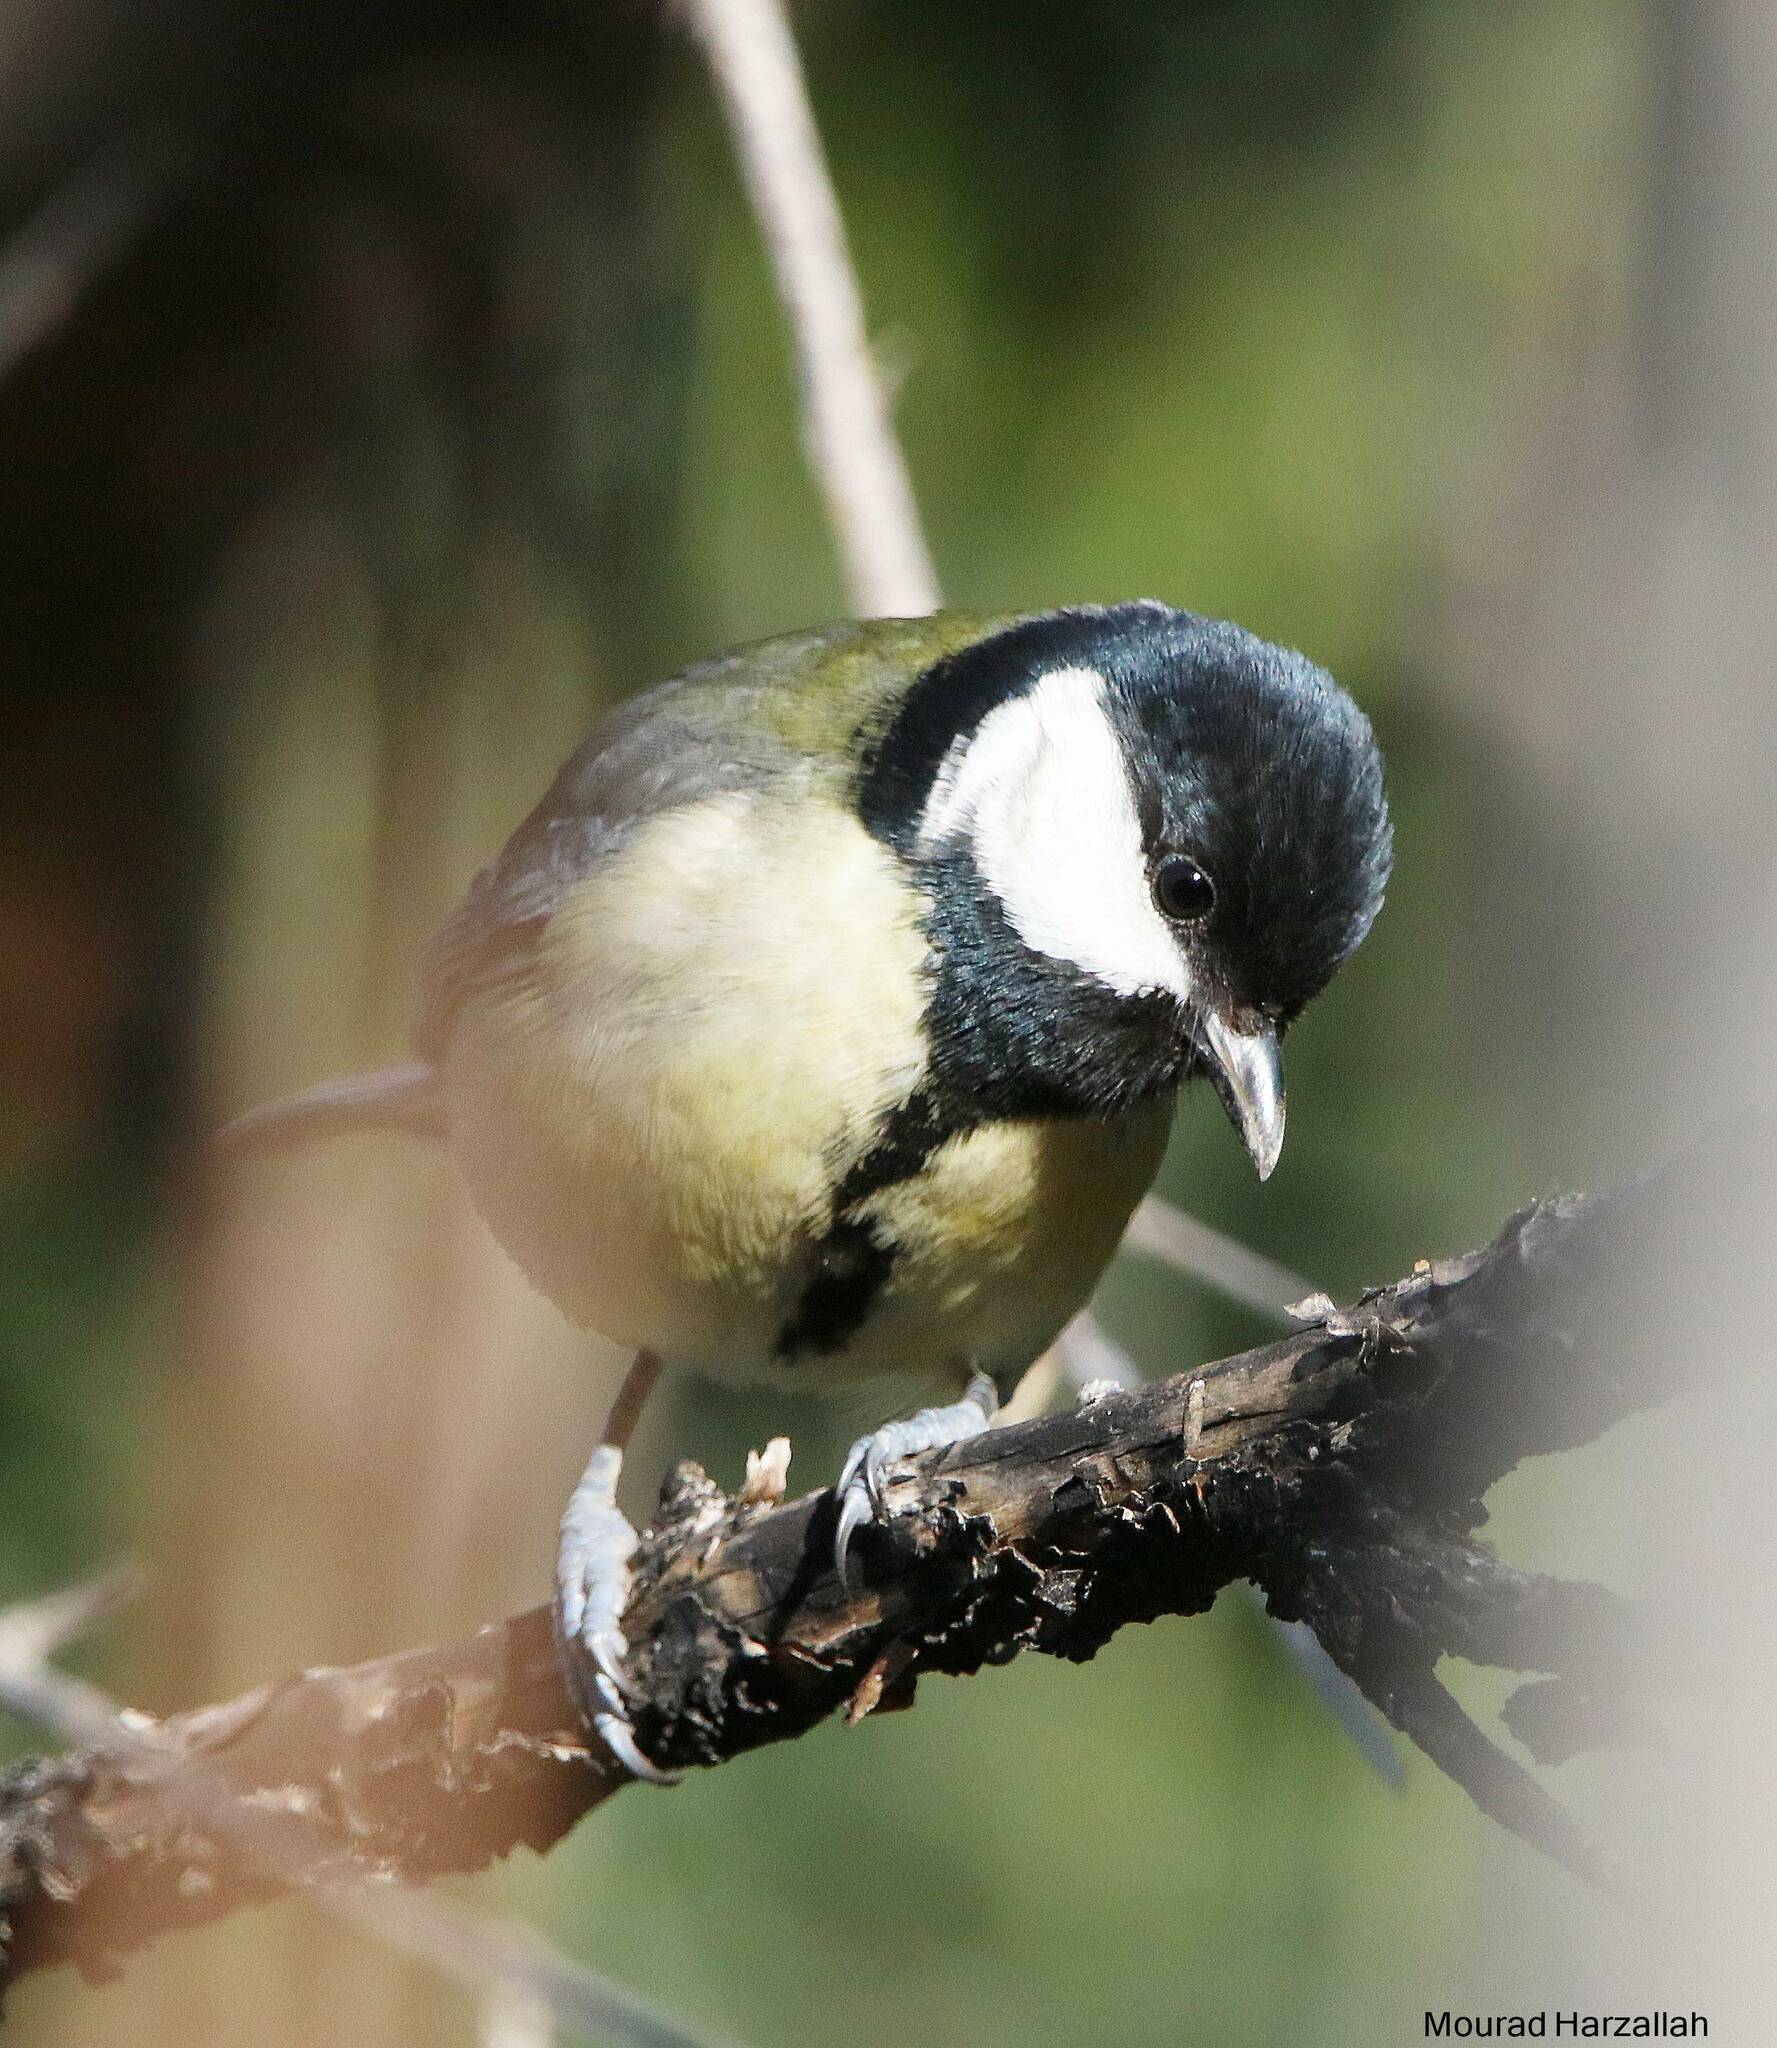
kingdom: Animalia
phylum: Chordata
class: Aves
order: Passeriformes
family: Paridae
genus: Parus
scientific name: Parus major
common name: Great tit
